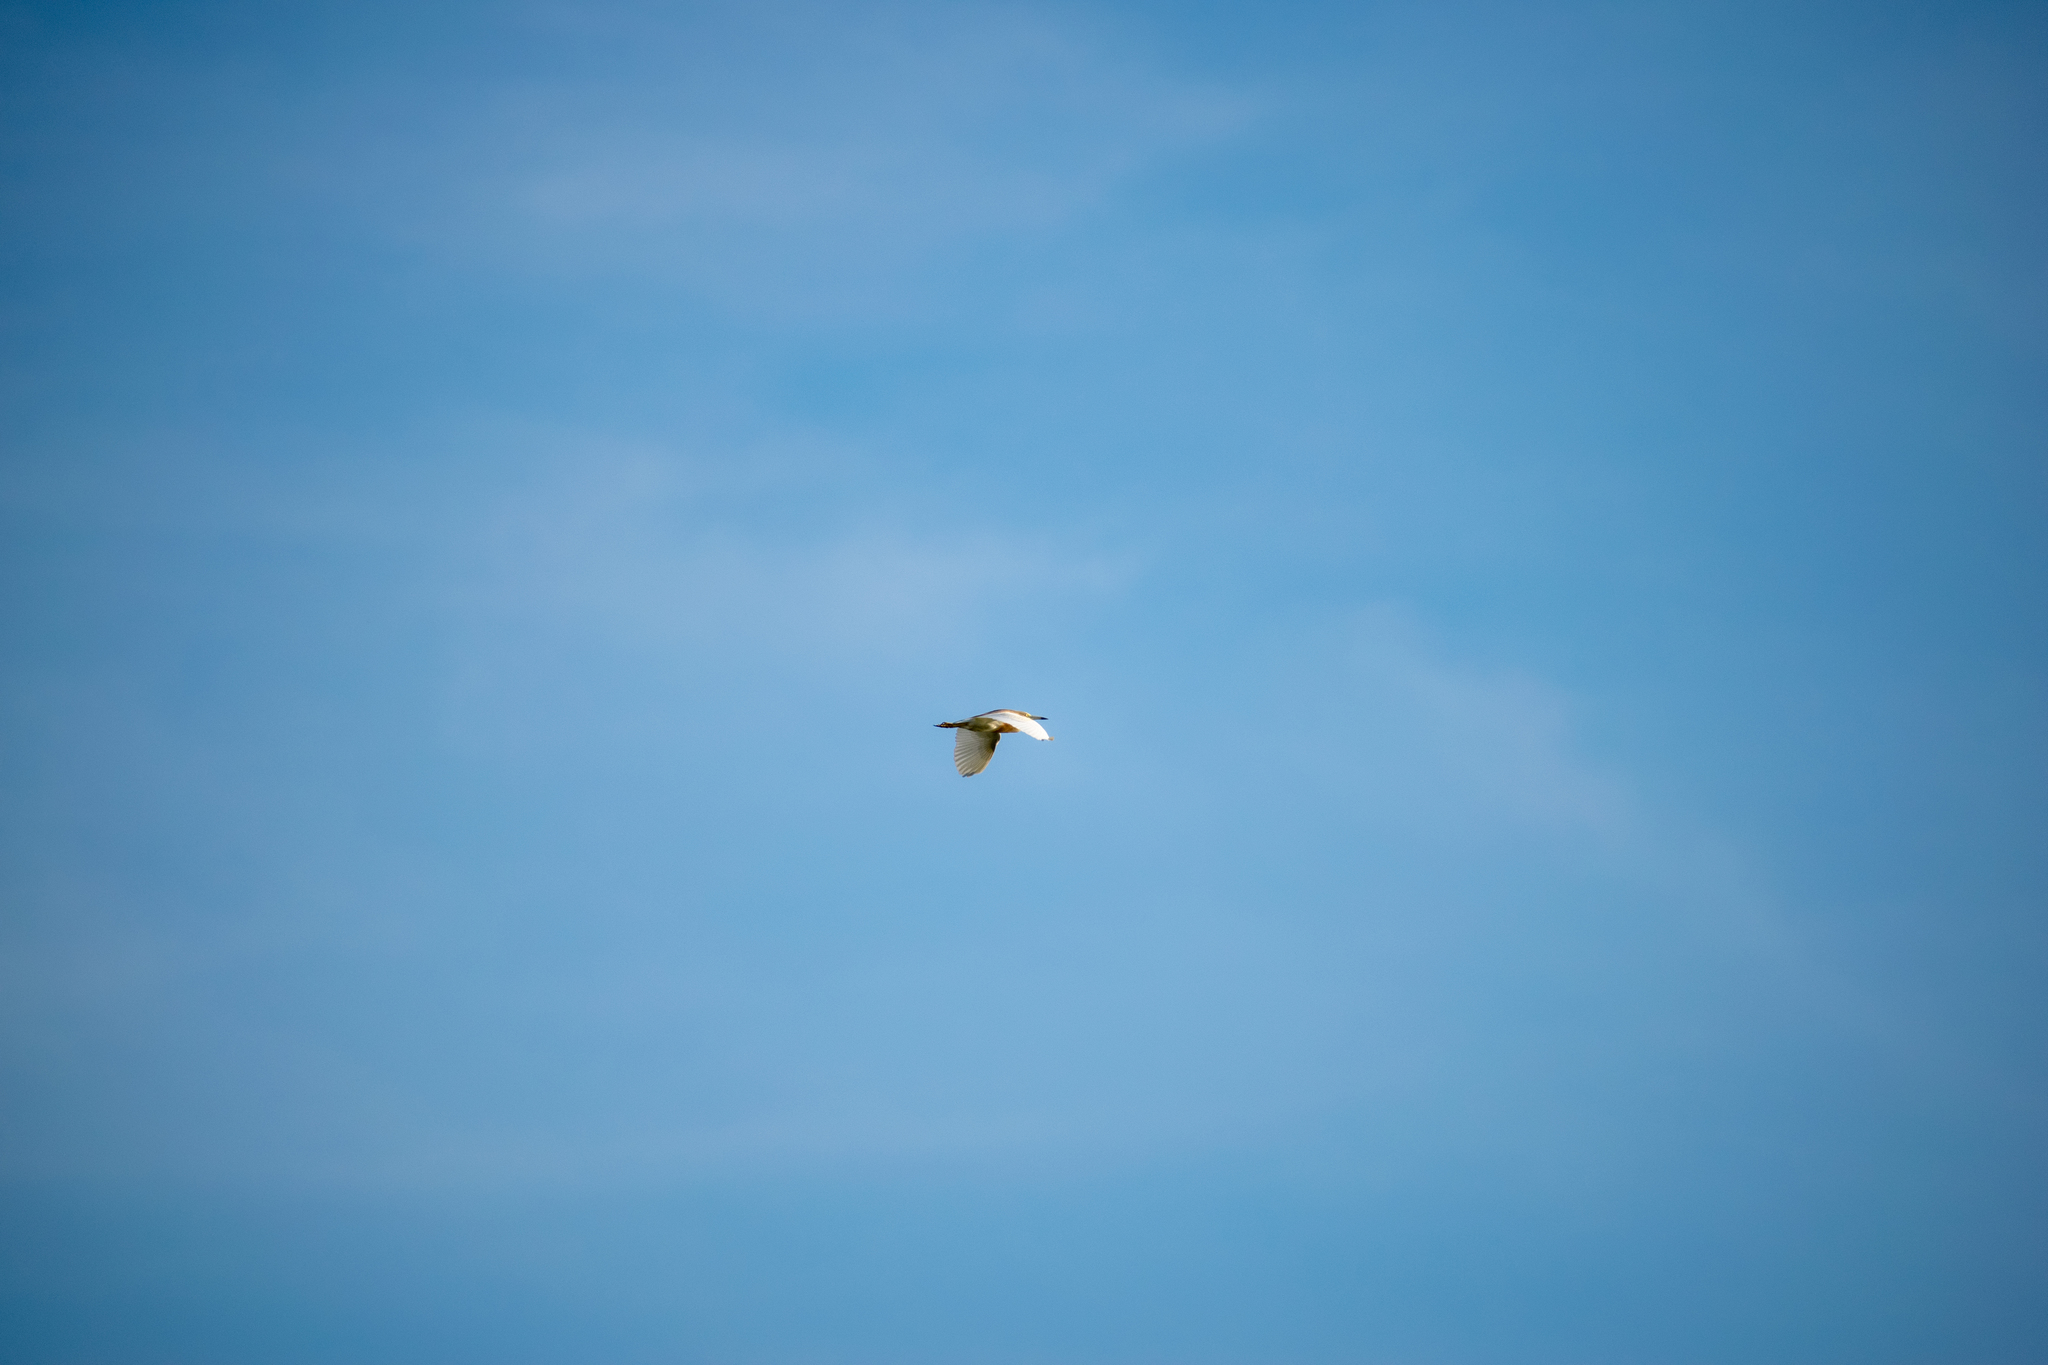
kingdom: Animalia
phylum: Chordata
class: Aves
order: Pelecaniformes
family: Ardeidae
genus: Ardeola
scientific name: Ardeola ralloides
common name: Squacco heron
